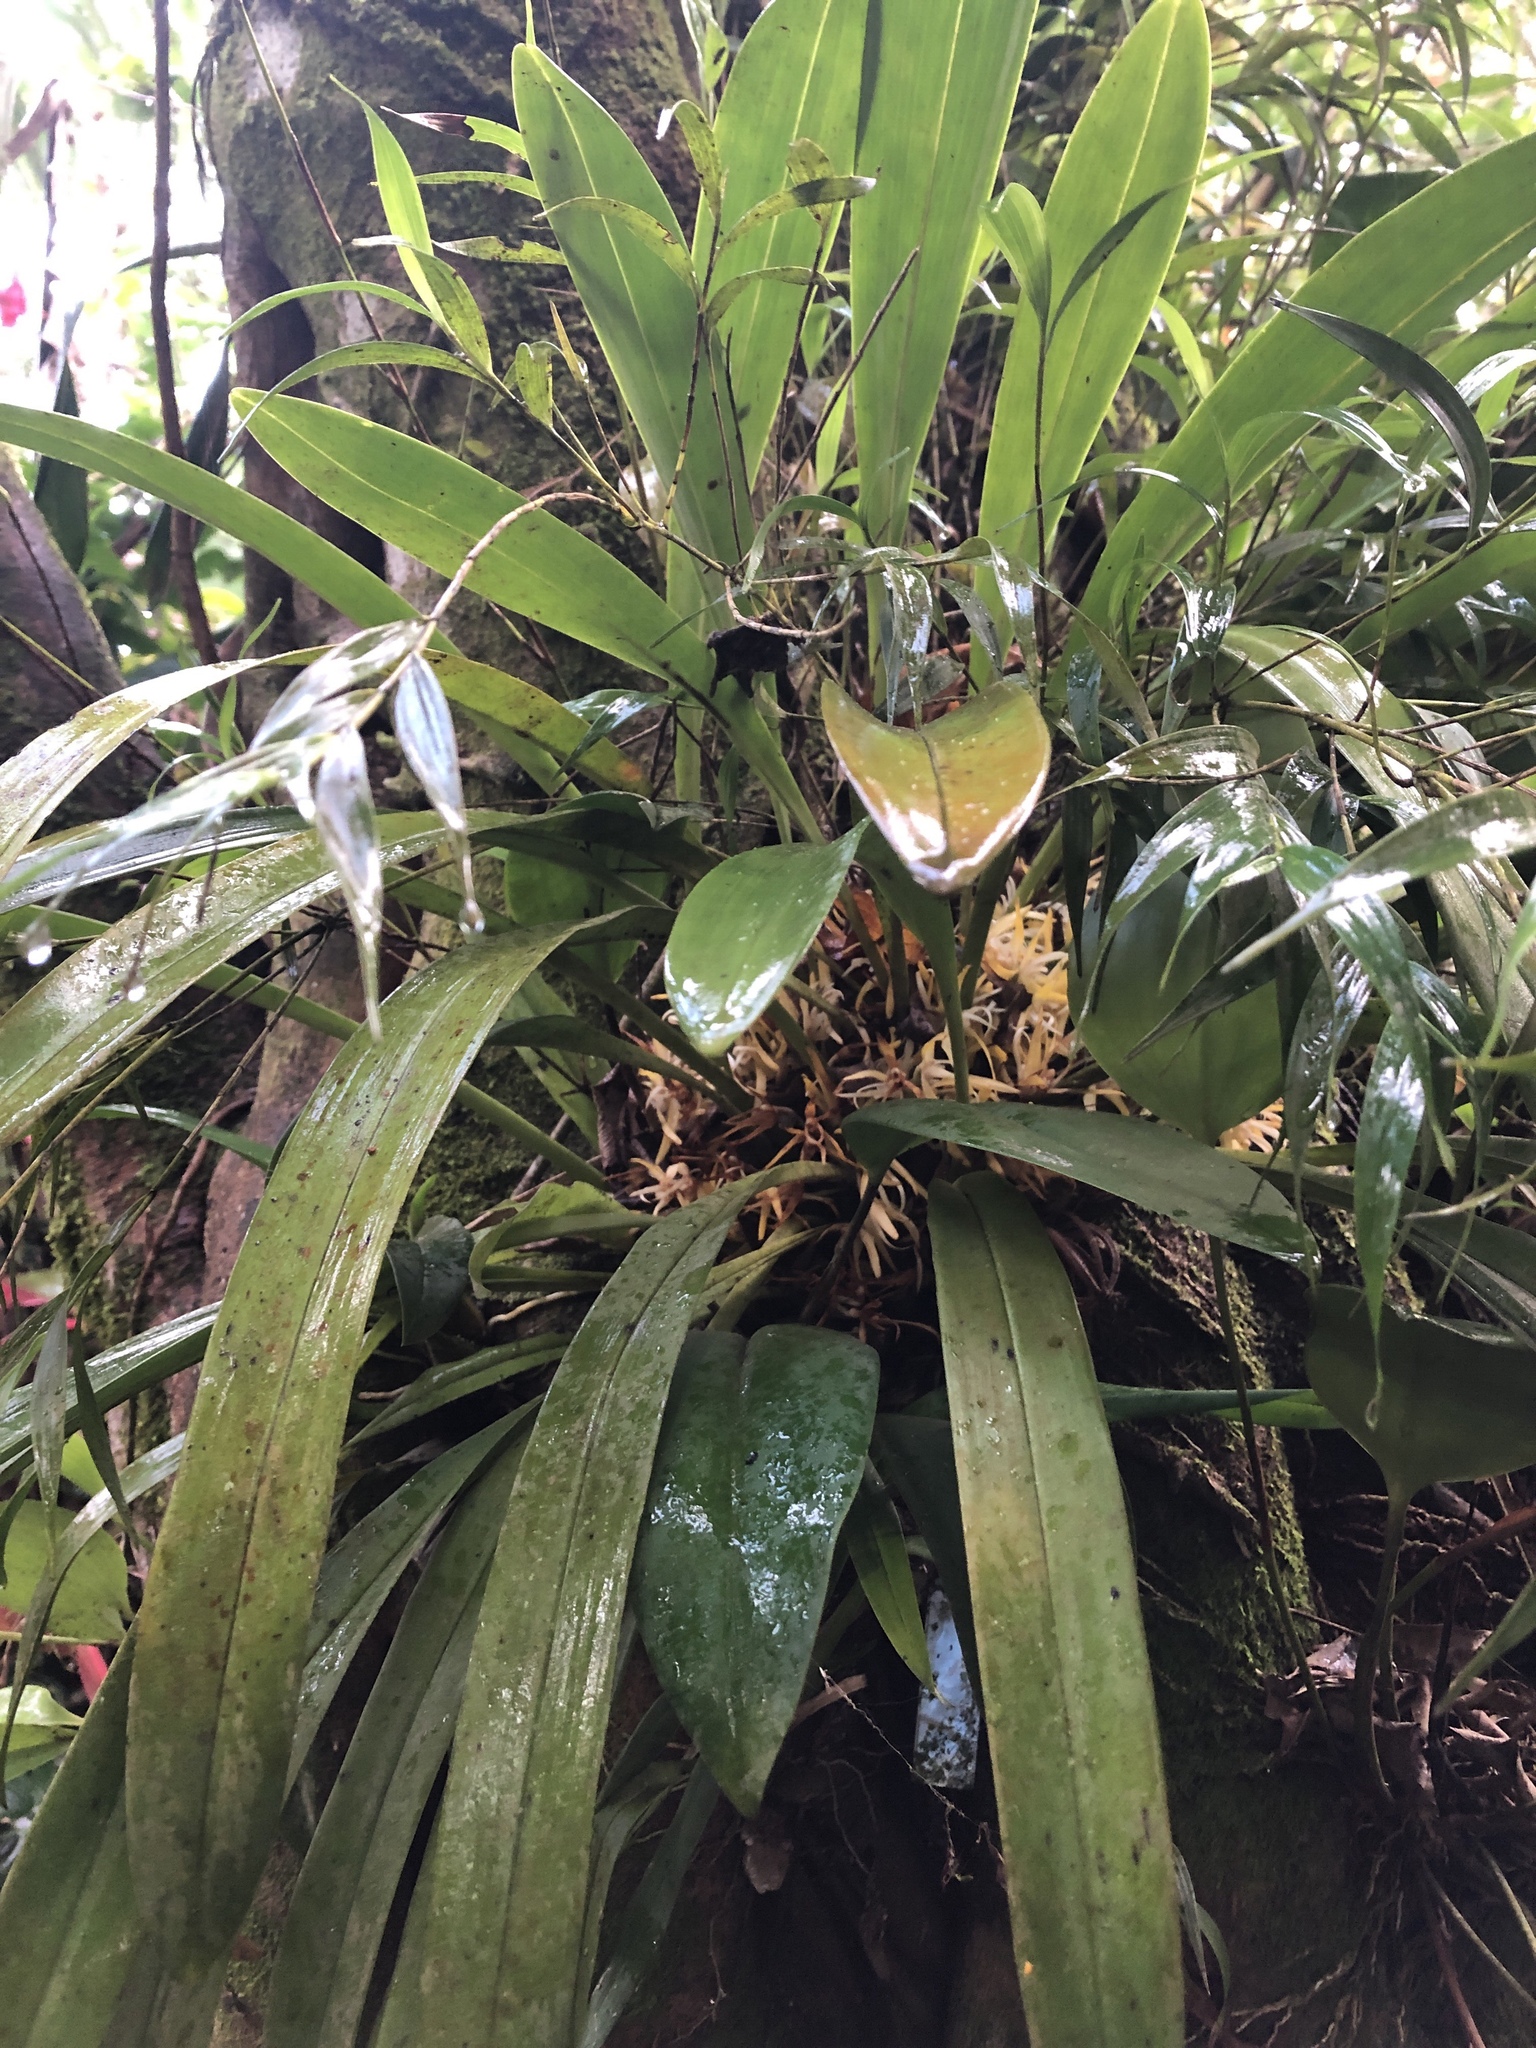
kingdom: Plantae
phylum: Tracheophyta
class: Liliopsida
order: Asparagales
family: Orchidaceae
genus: Maxillaria
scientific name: Maxillaria endresii
